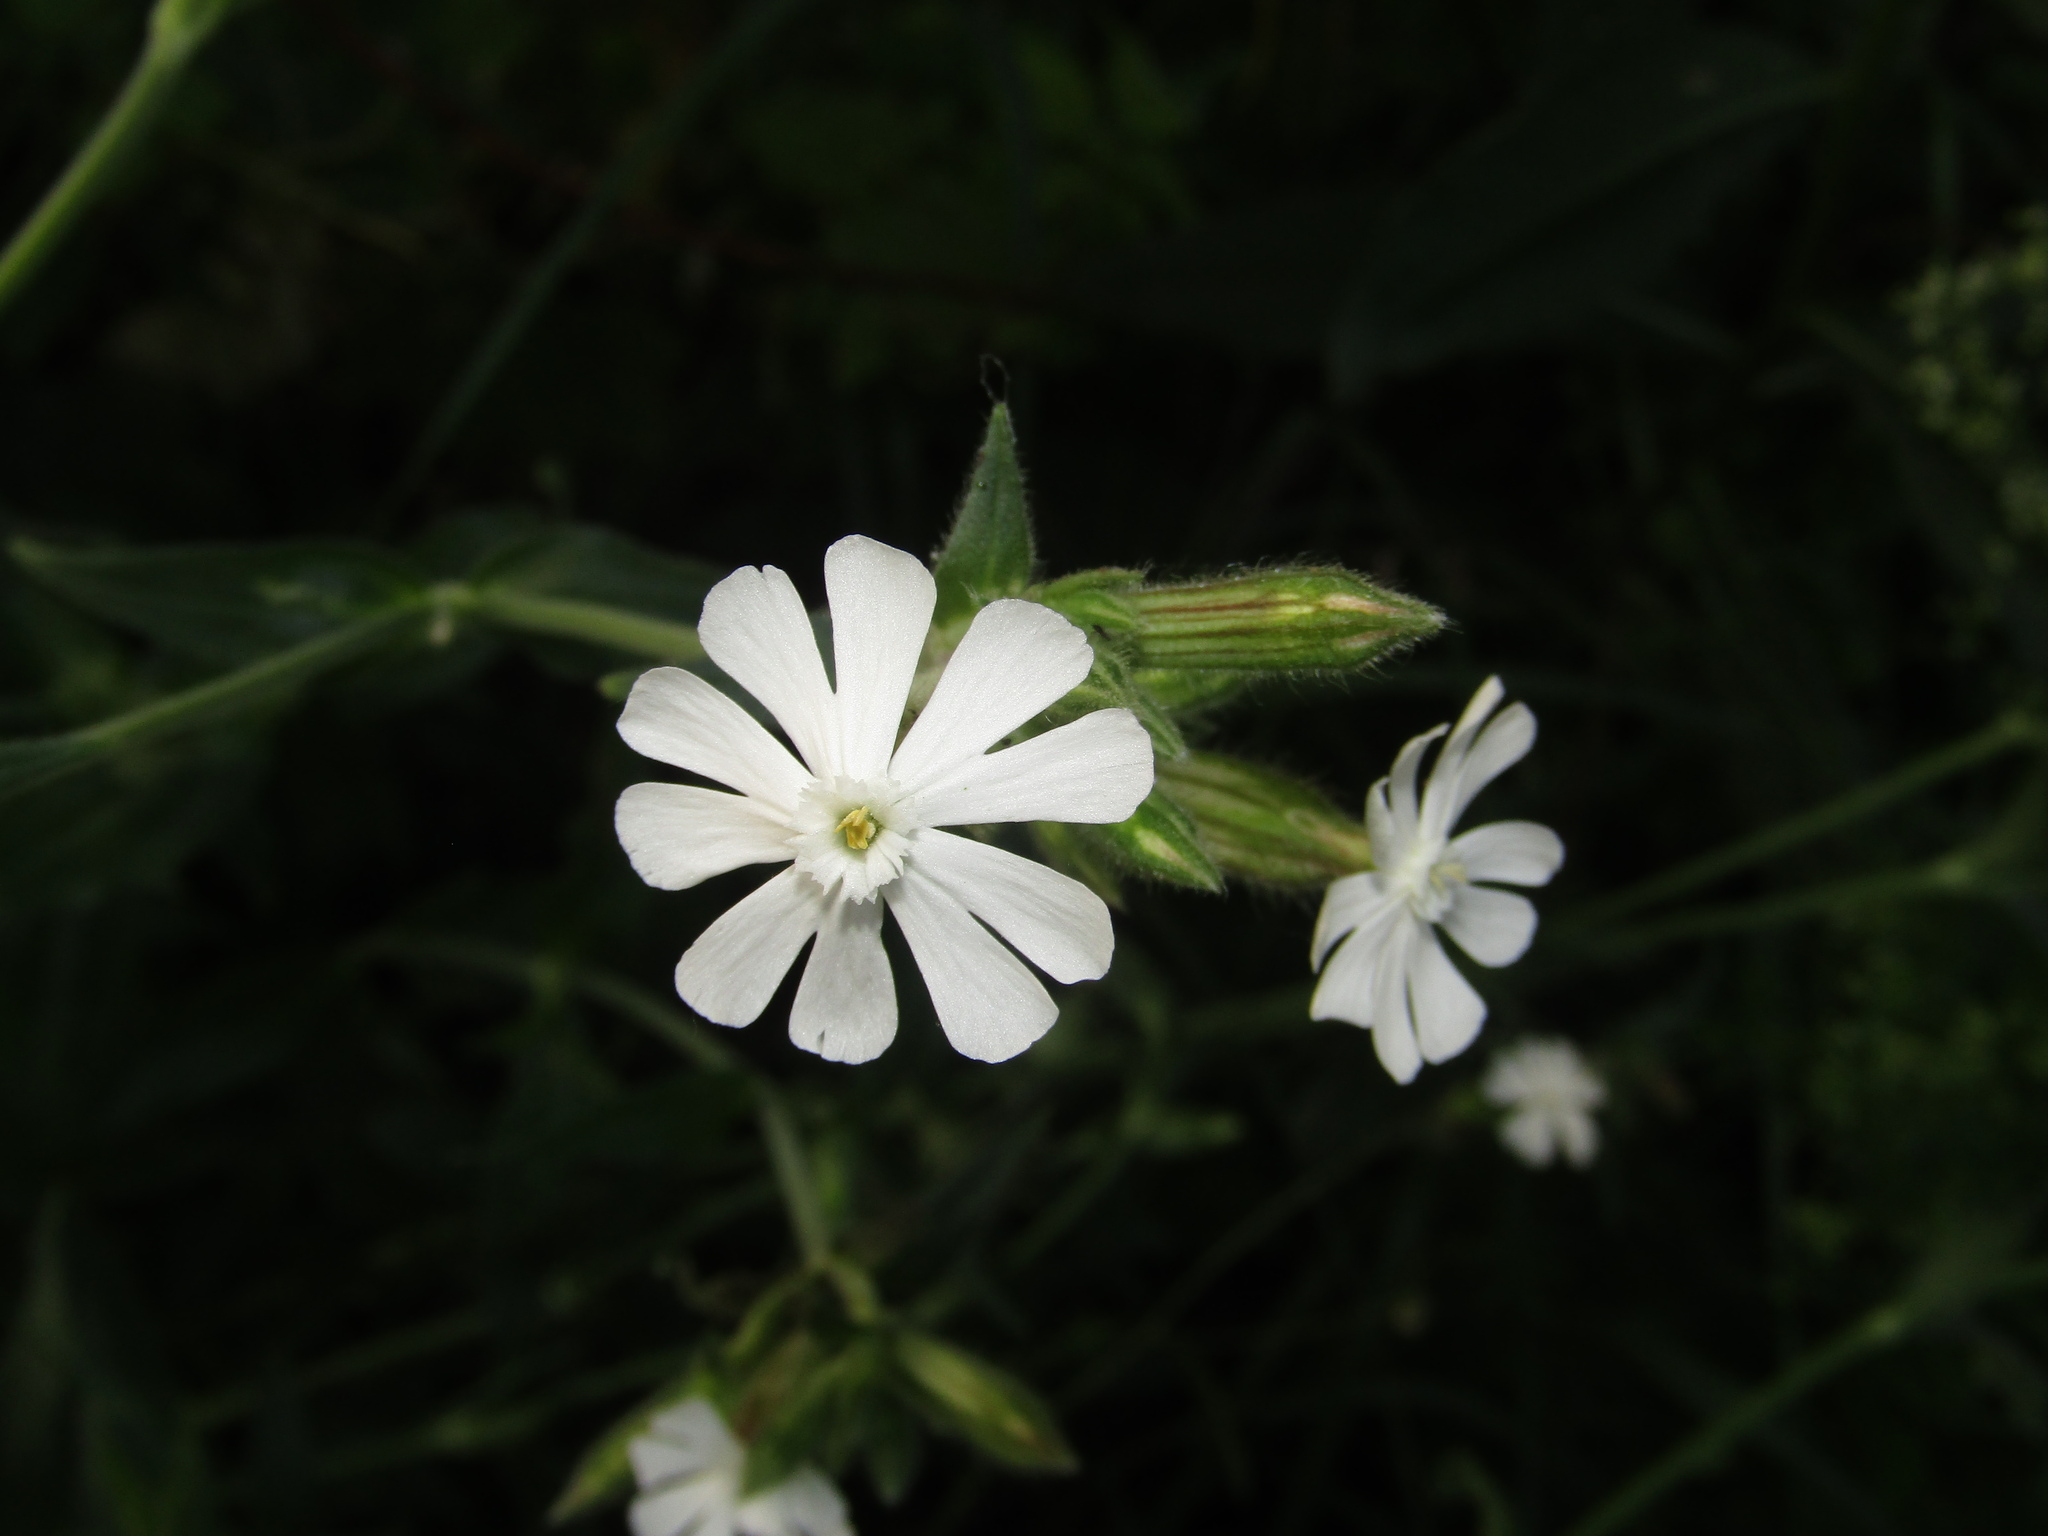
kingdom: Plantae
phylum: Tracheophyta
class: Magnoliopsida
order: Caryophyllales
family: Caryophyllaceae
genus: Silene
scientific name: Silene latifolia
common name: White campion
